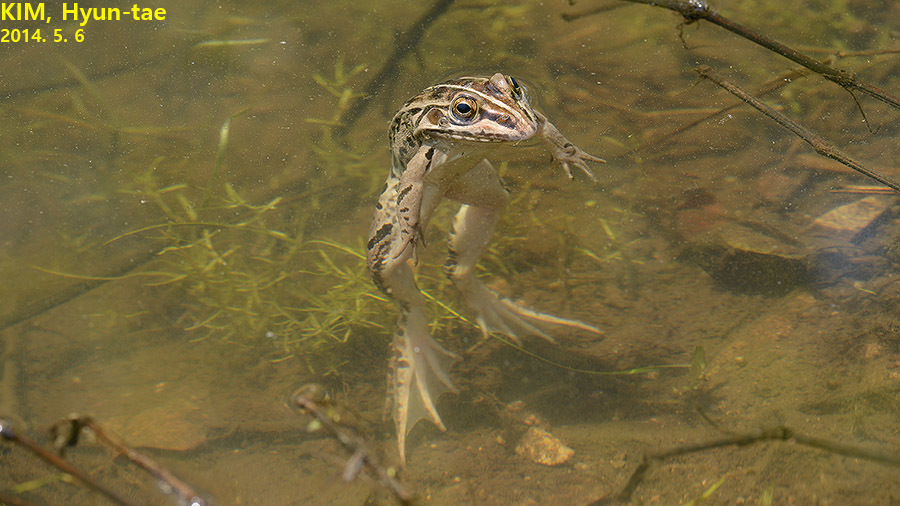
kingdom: Animalia
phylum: Chordata
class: Amphibia
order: Anura
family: Ranidae
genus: Pelophylax
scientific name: Pelophylax nigromaculatus
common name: Black-spotted pond frog
